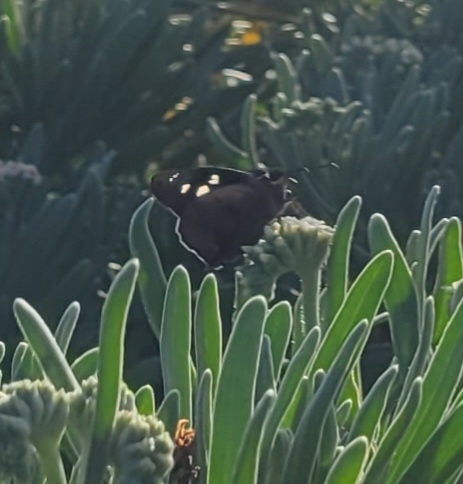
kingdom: Animalia
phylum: Arthropoda
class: Insecta
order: Lepidoptera
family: Hesperiidae
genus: Polygonus
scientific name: Polygonus leo
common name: Hammoch skipper
